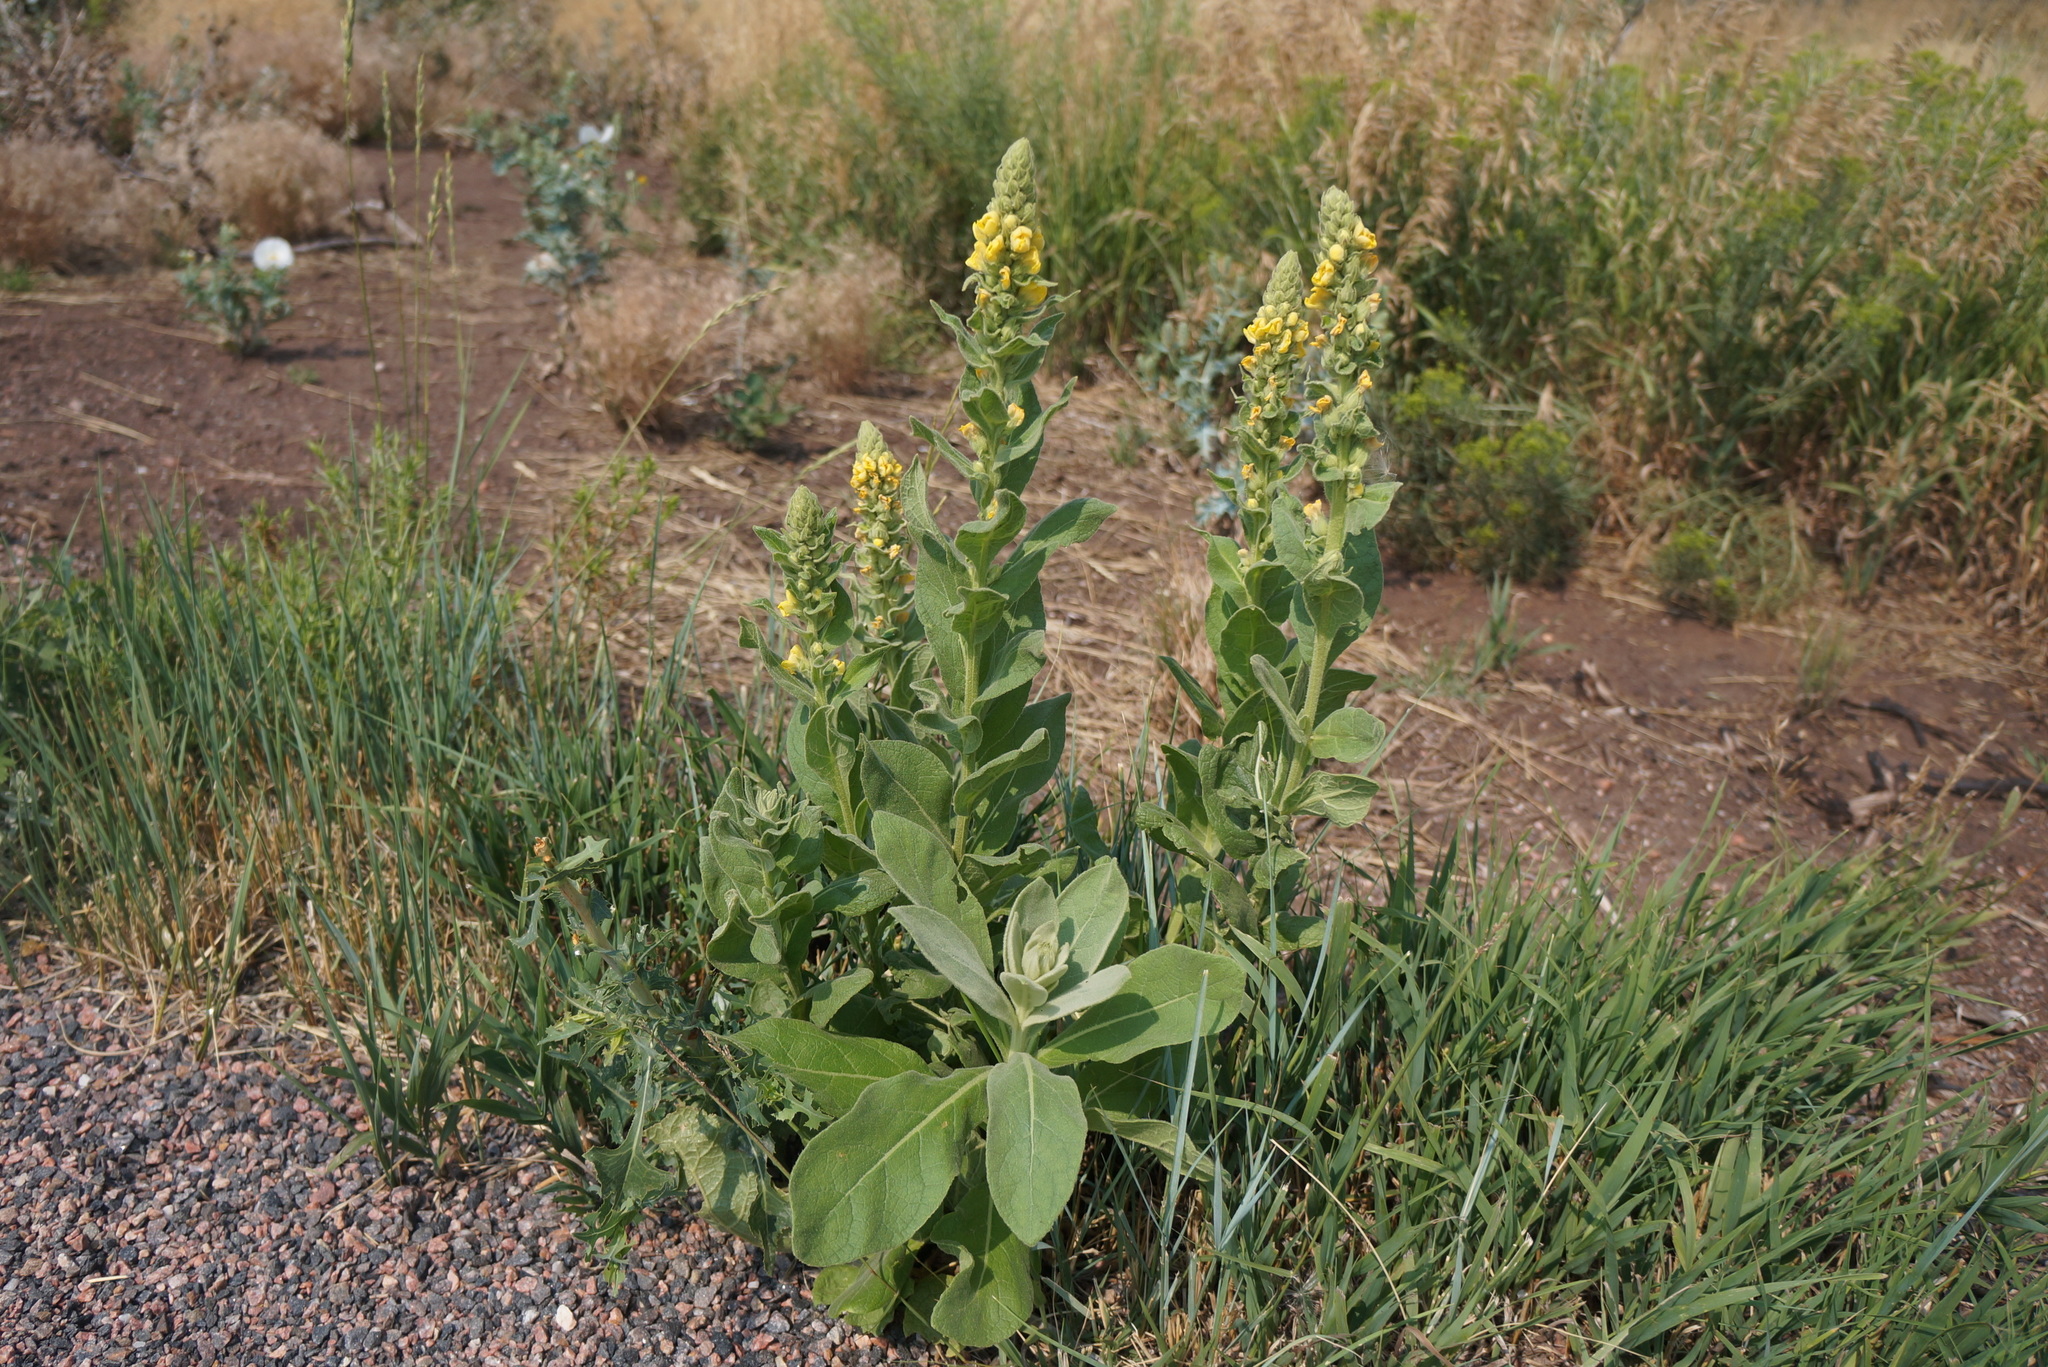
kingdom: Plantae
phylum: Tracheophyta
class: Magnoliopsida
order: Lamiales
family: Scrophulariaceae
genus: Verbascum
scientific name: Verbascum thapsus
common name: Common mullein
